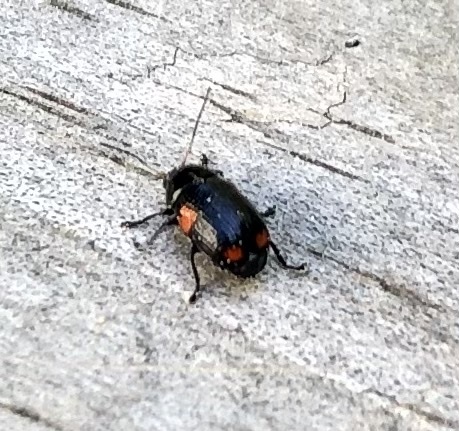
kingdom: Animalia
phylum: Arthropoda
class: Insecta
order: Coleoptera
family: Chrysomelidae
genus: Bassareus
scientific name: Bassareus mammifer
